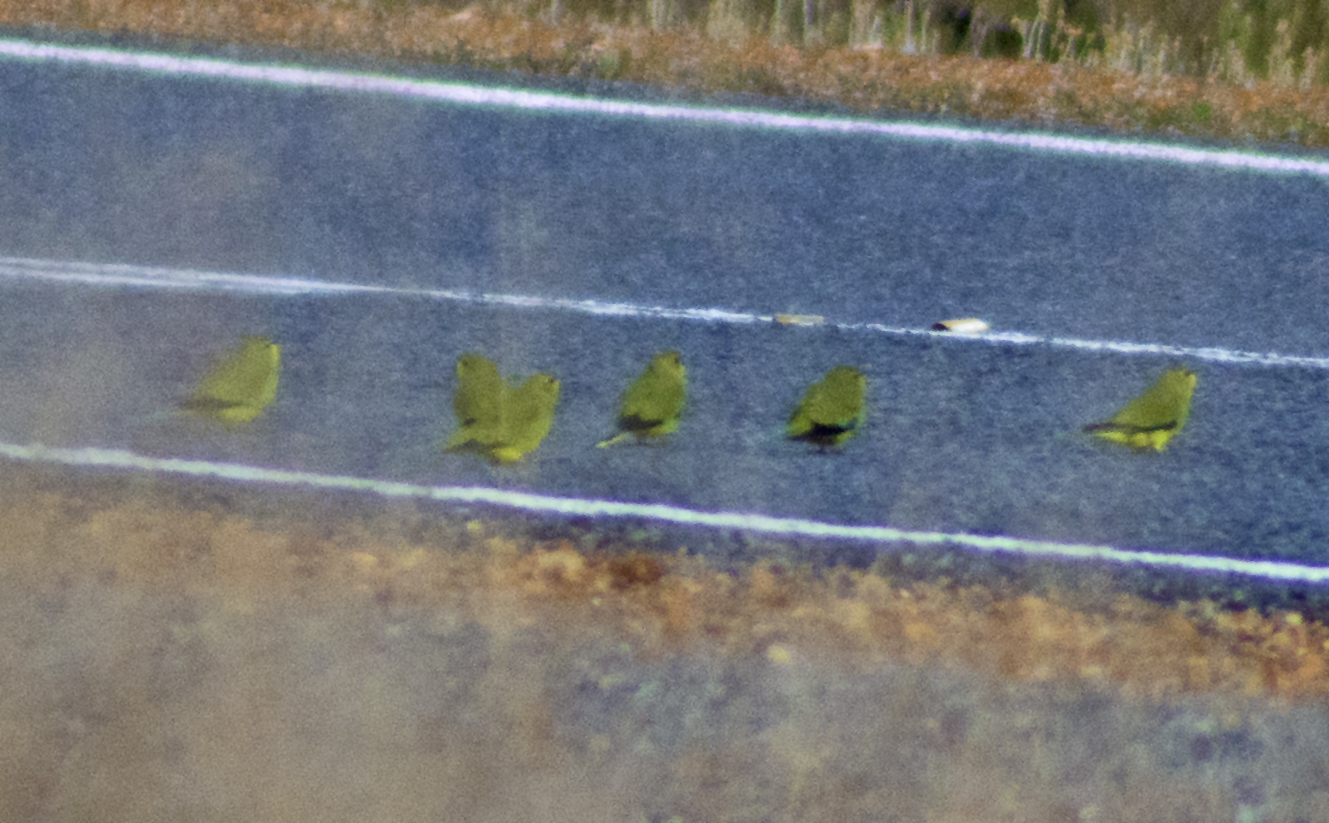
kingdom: Animalia
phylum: Chordata
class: Aves
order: Psittaciformes
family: Psittacidae
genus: Neophema
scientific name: Neophema elegans
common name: Elegant parrot
